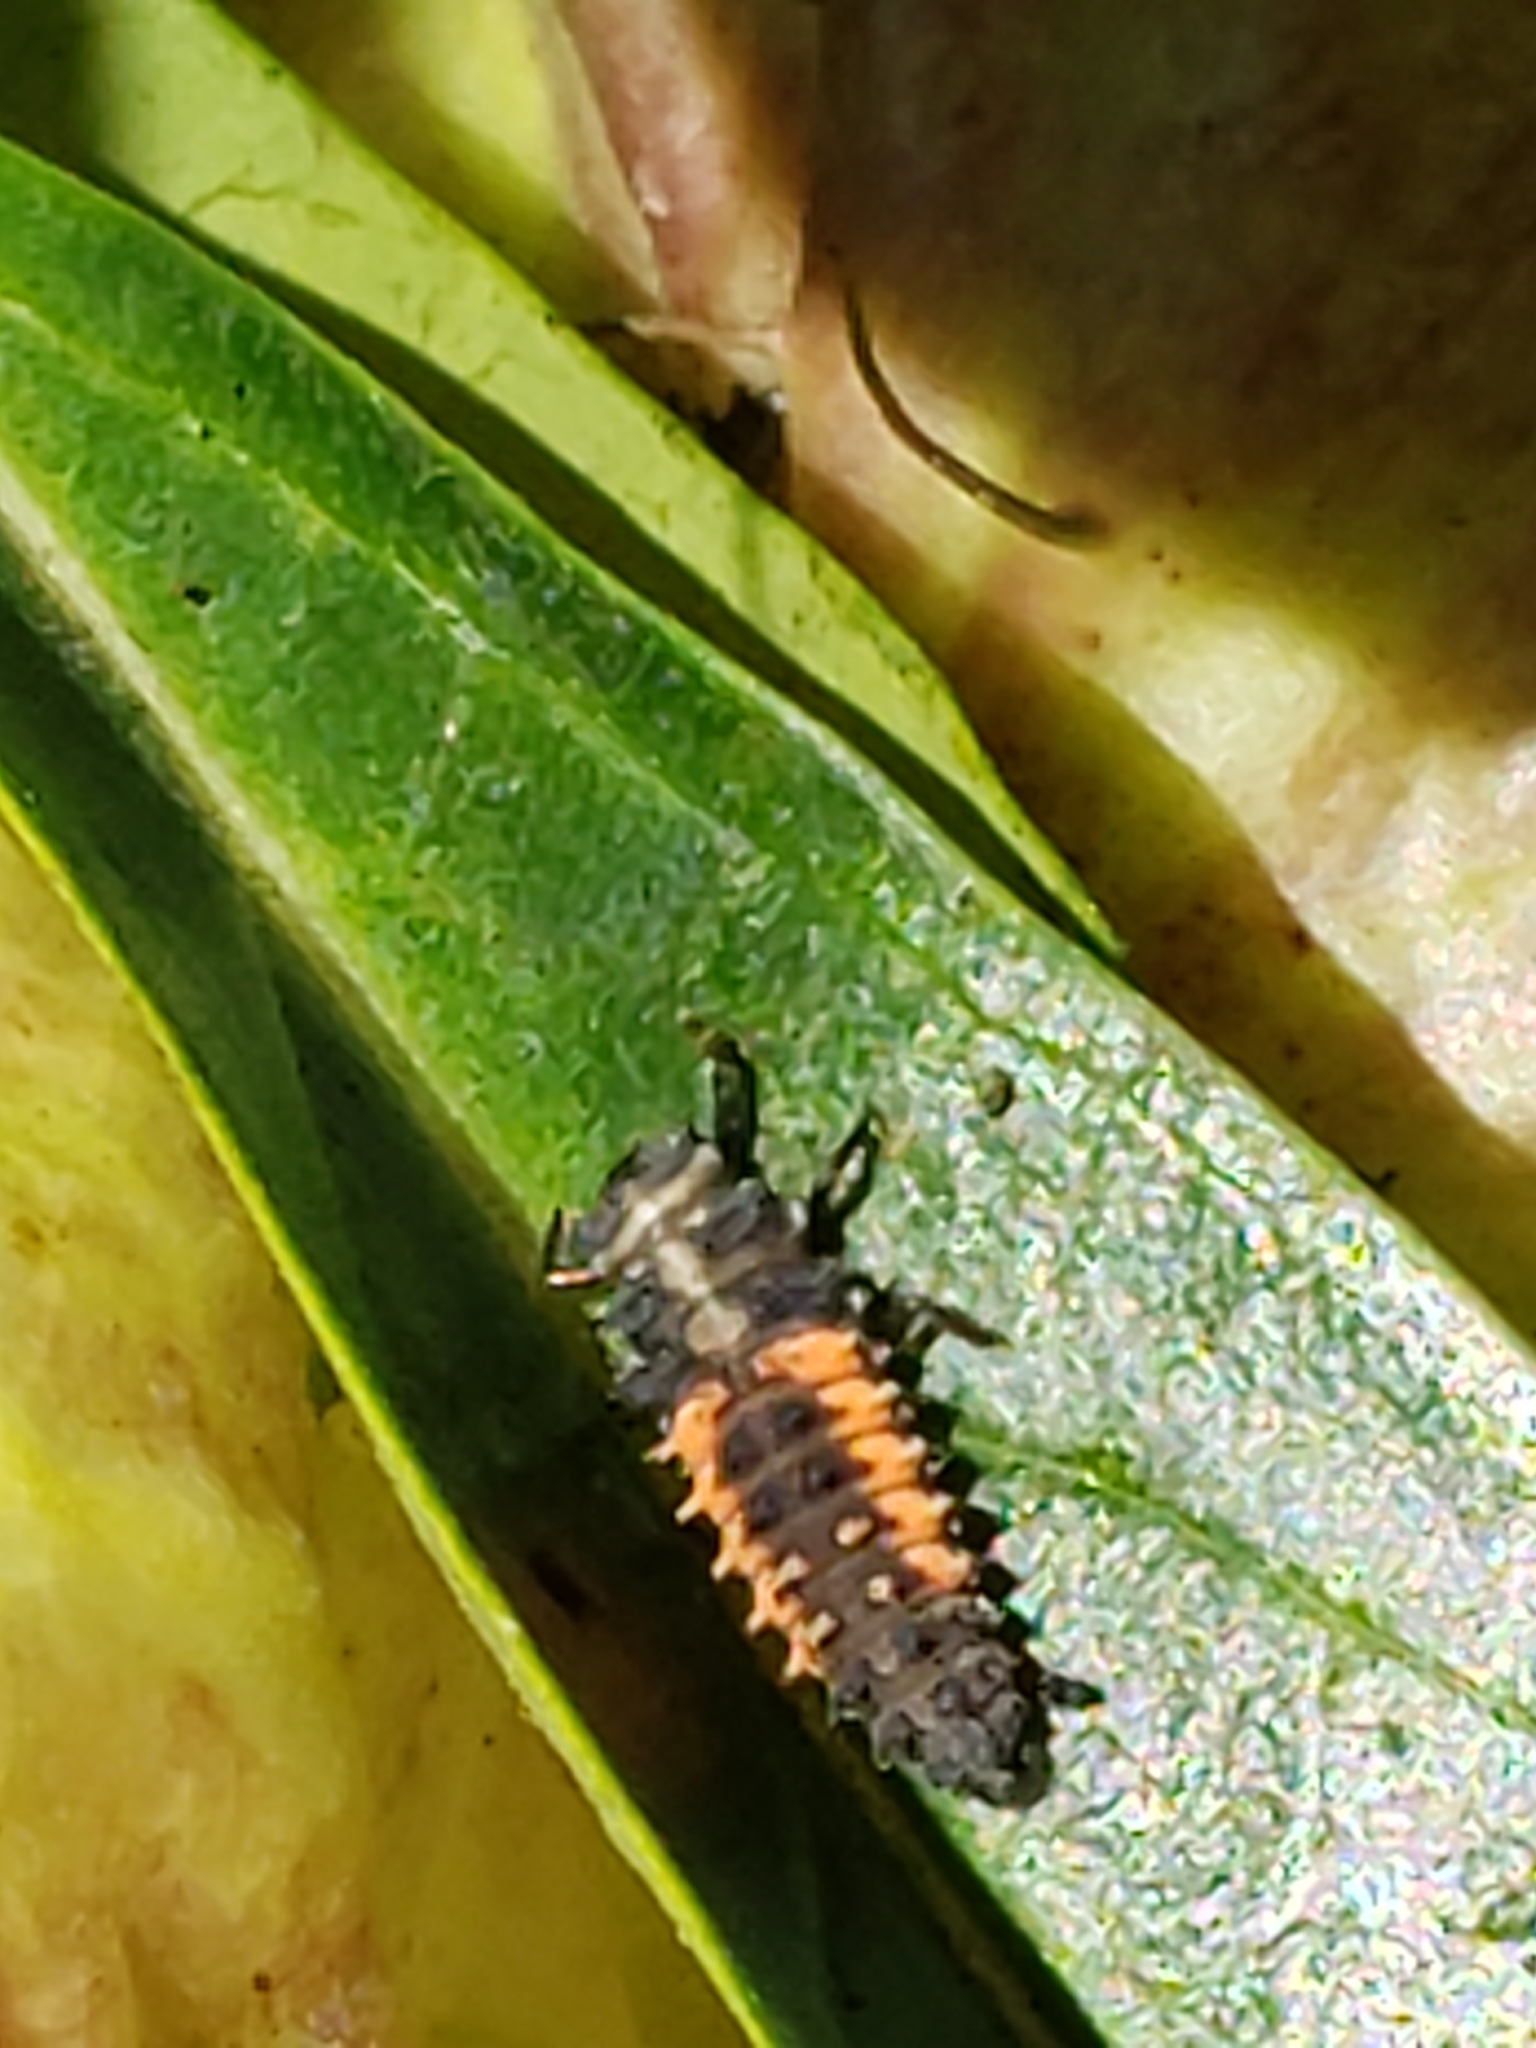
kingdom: Animalia
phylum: Arthropoda
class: Insecta
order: Coleoptera
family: Coccinellidae
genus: Harmonia
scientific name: Harmonia axyridis
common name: Harlequin ladybird
